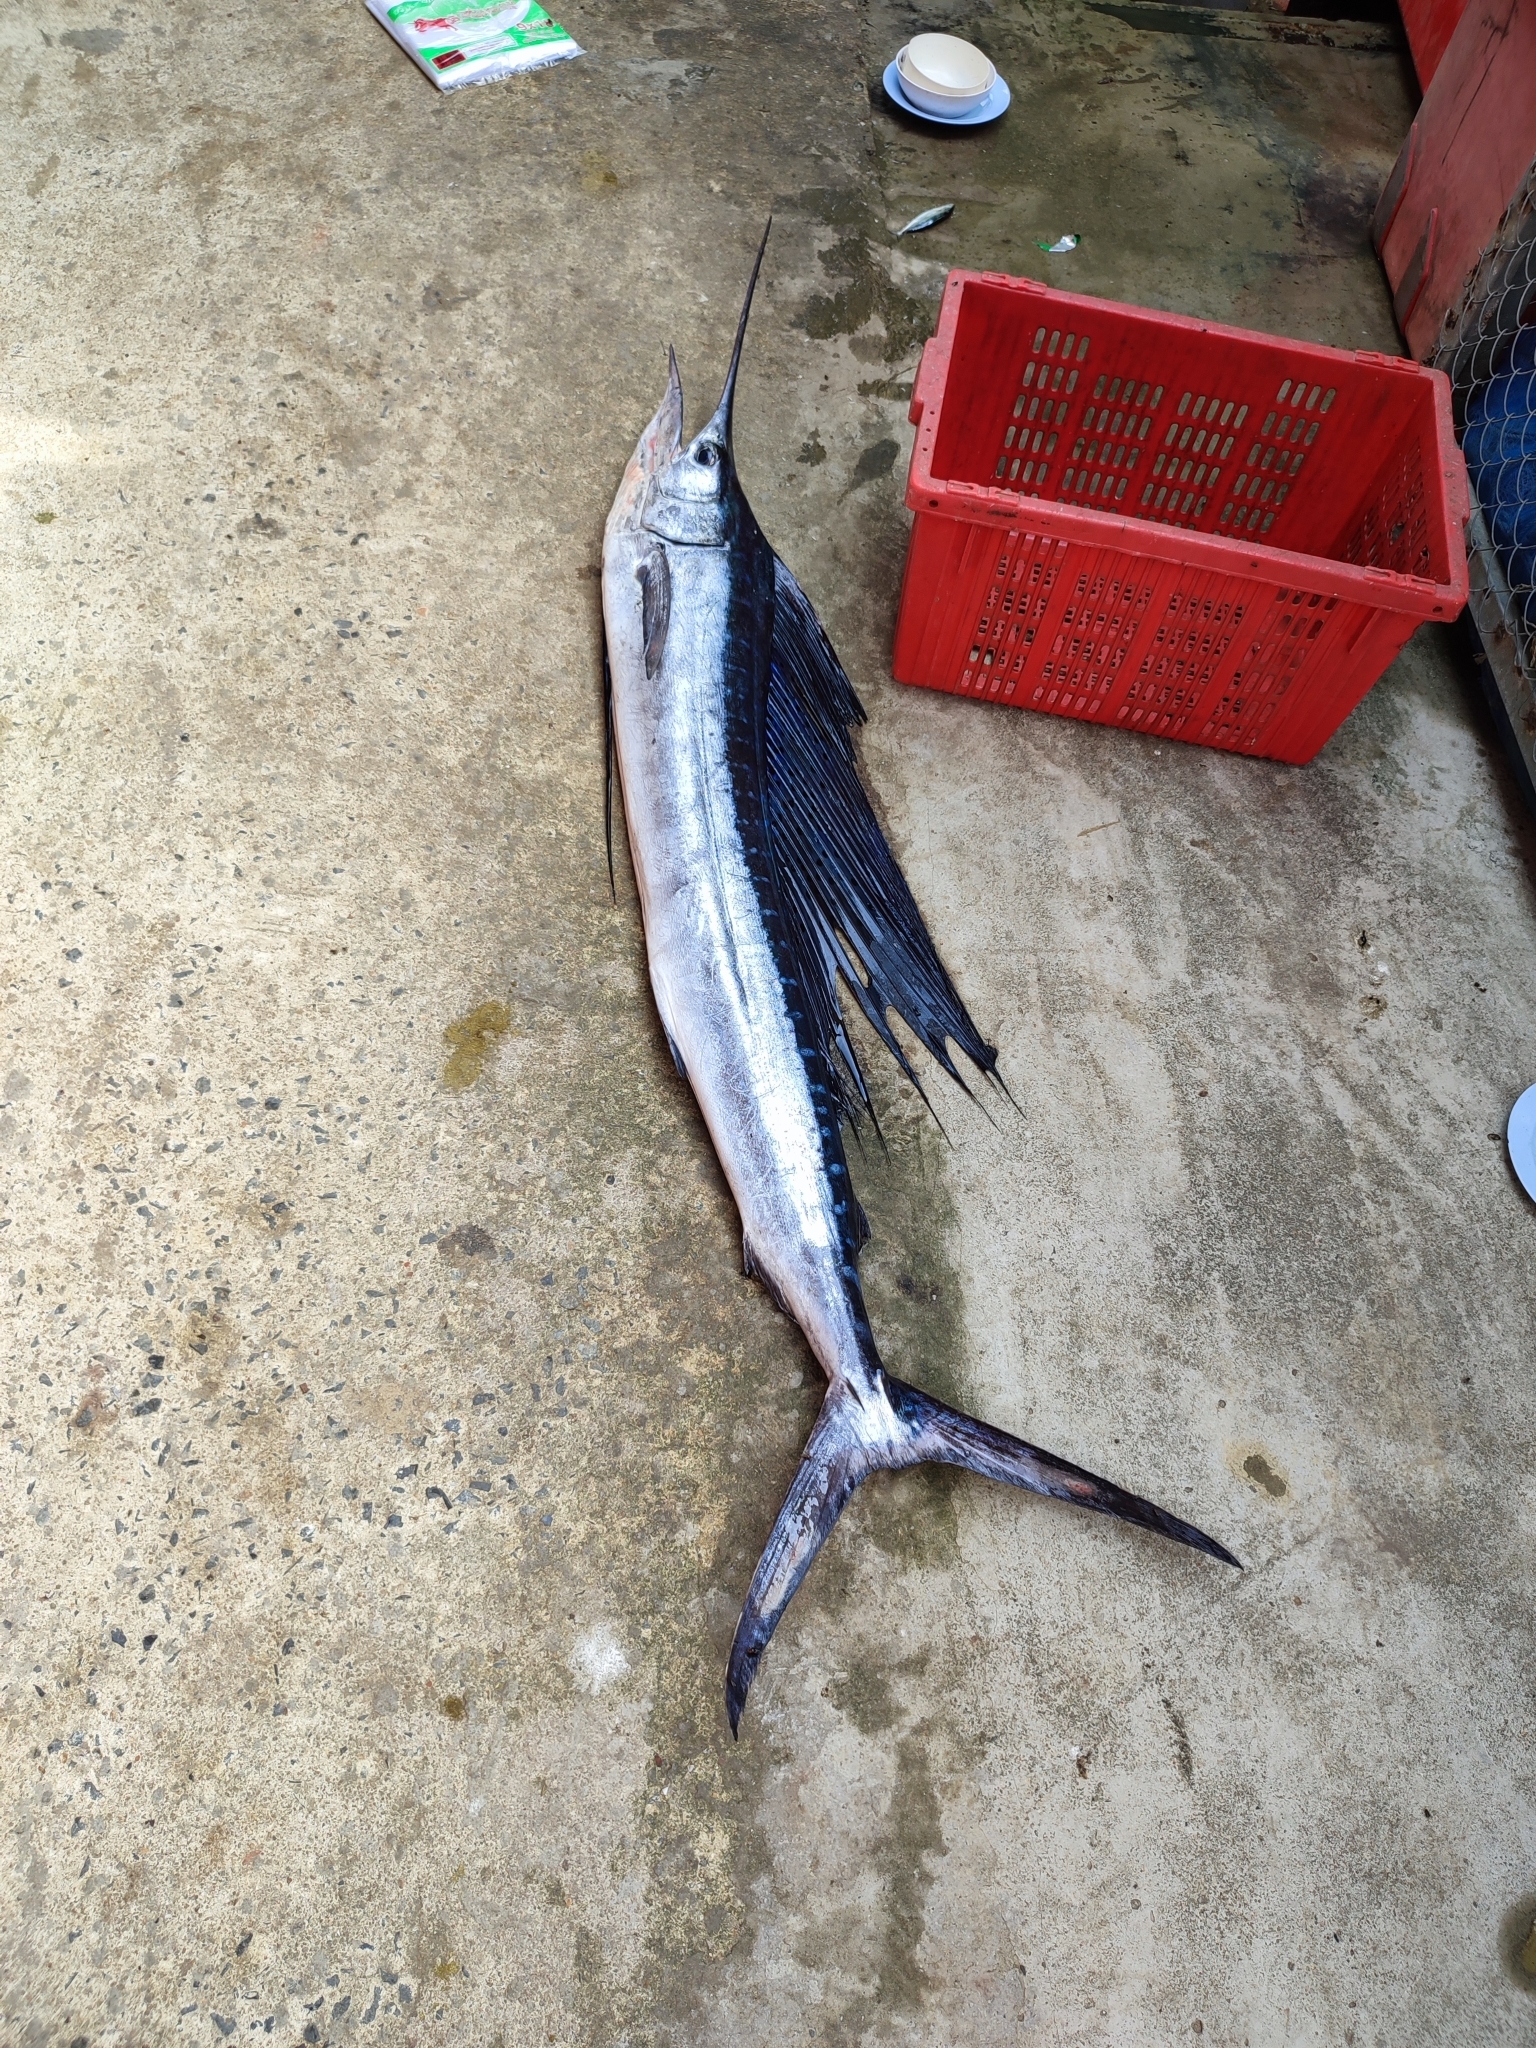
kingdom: Animalia
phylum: Chordata
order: Perciformes
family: Istiophoridae
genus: Istiophorus
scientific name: Istiophorus platypterus
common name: Sailfish
